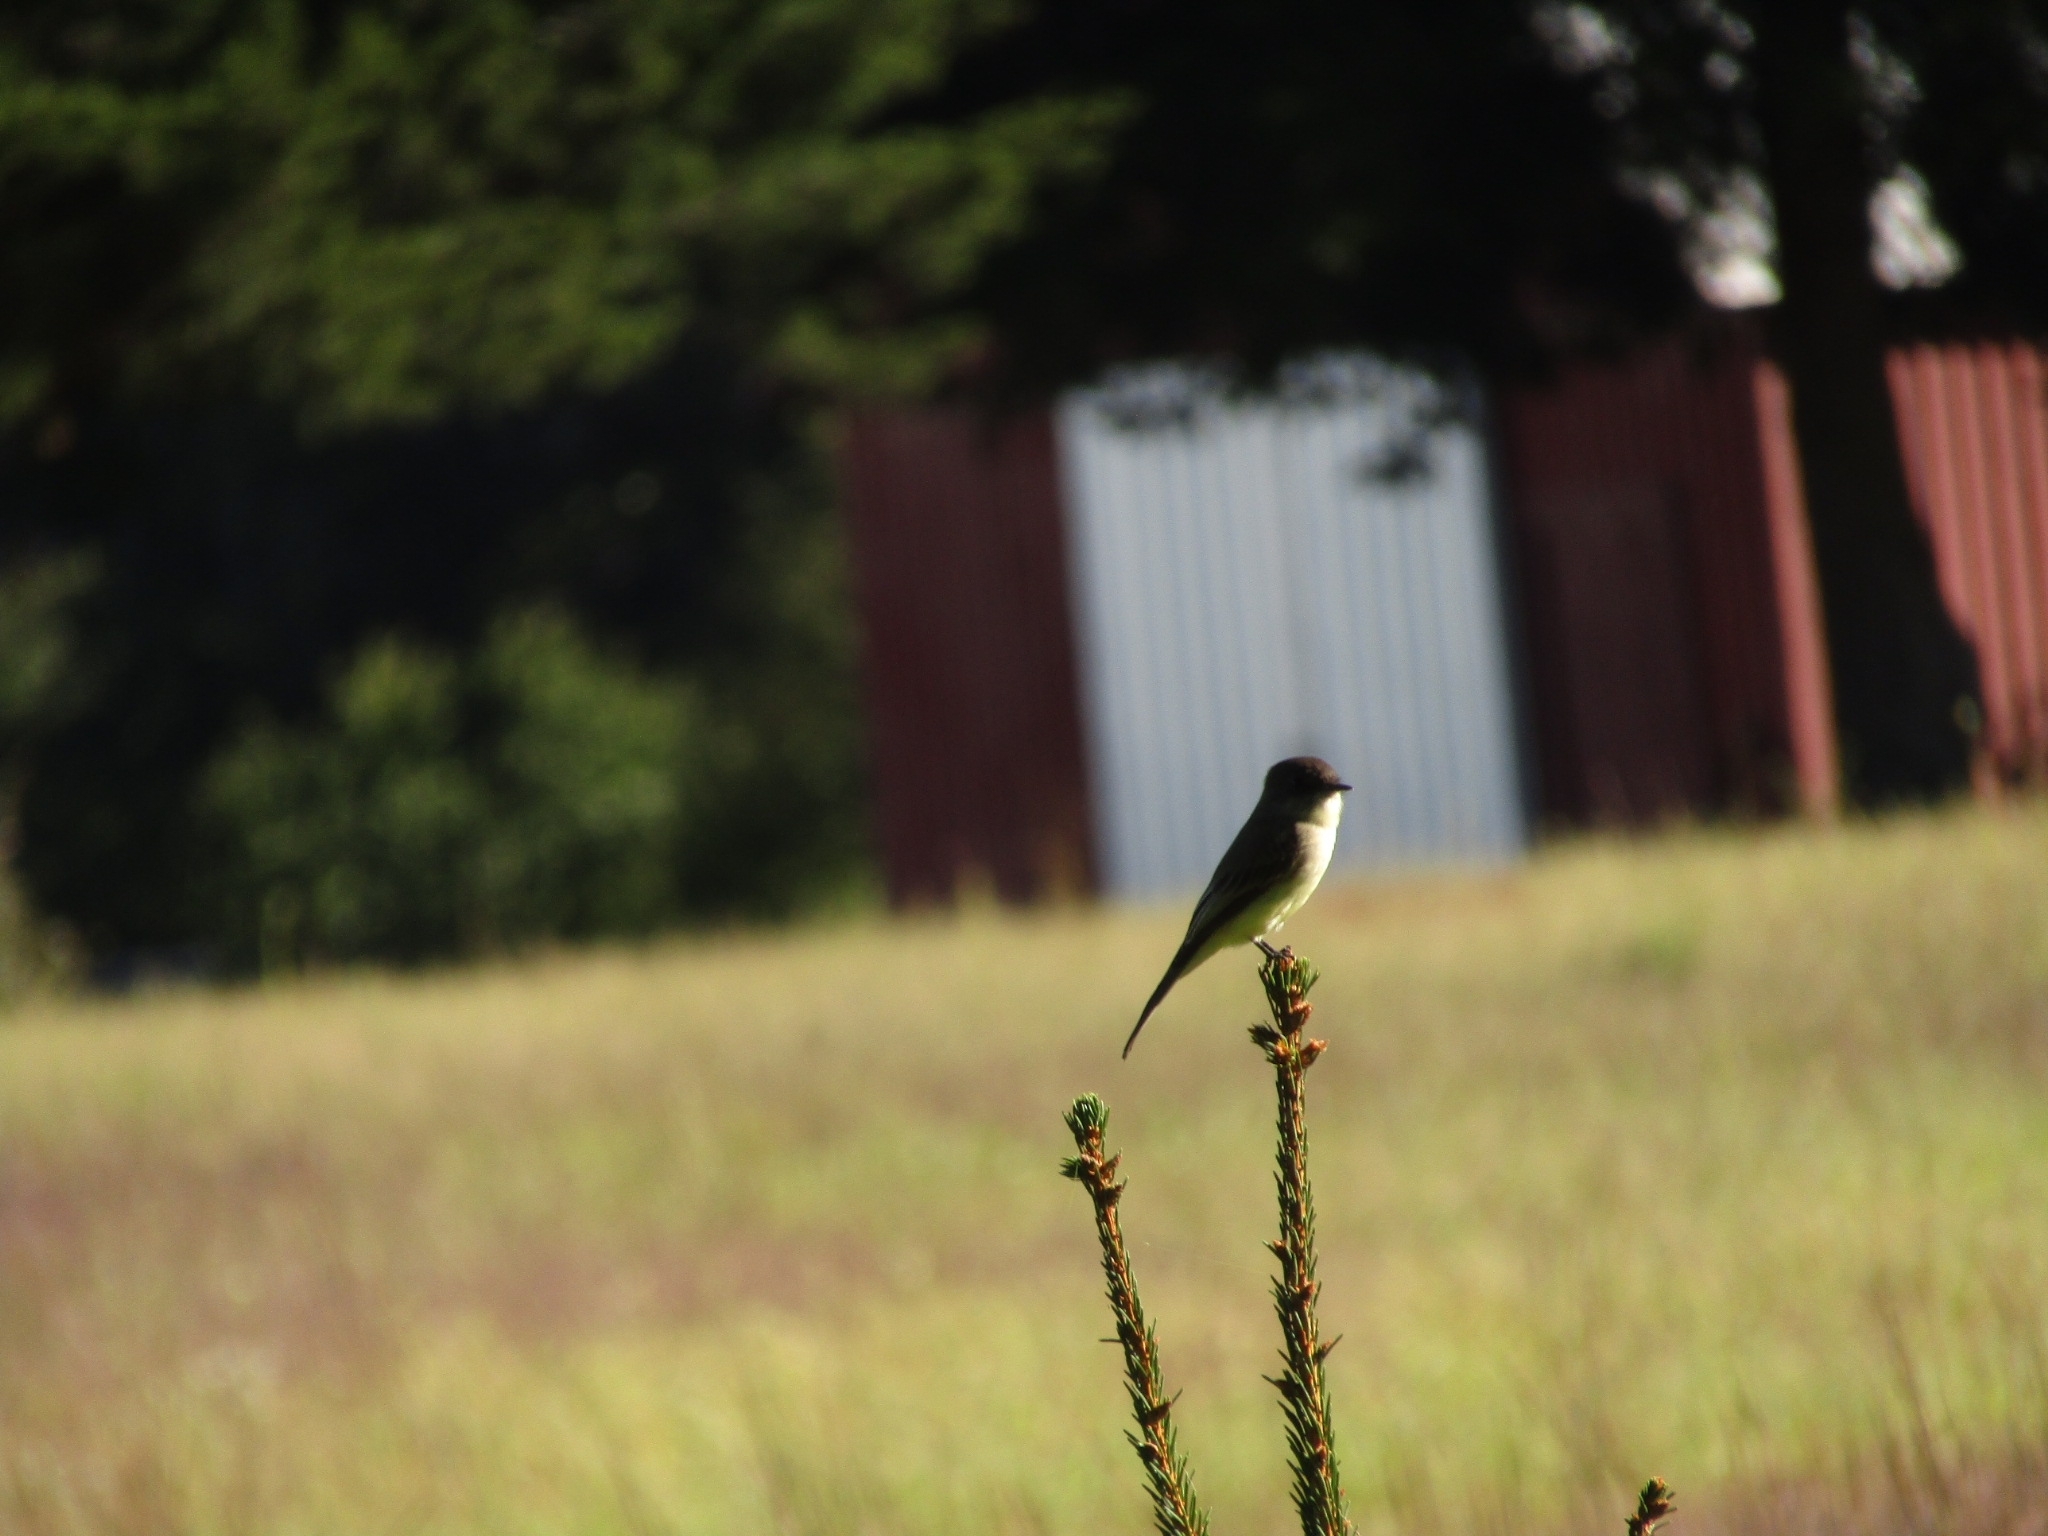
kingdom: Animalia
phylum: Chordata
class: Aves
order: Passeriformes
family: Tyrannidae
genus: Sayornis
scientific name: Sayornis phoebe
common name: Eastern phoebe
